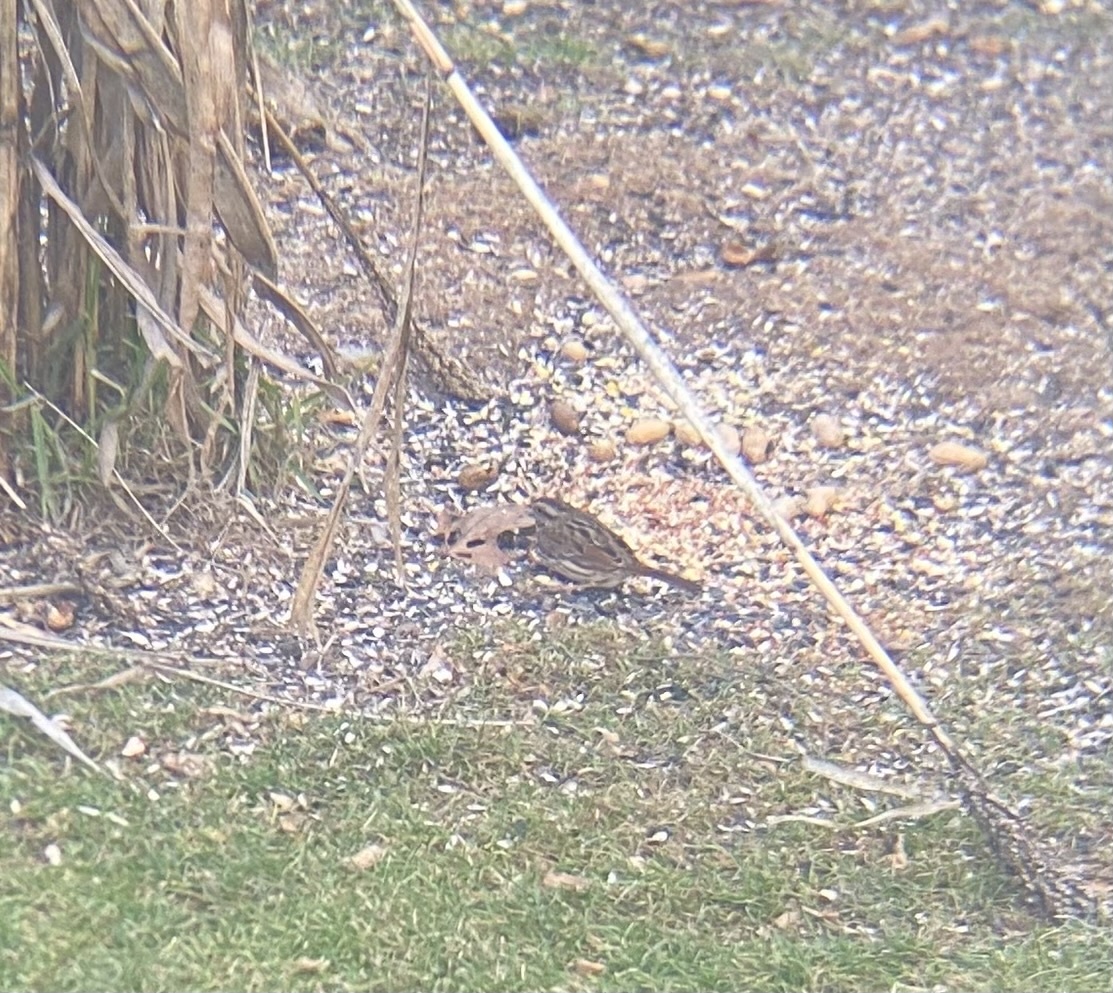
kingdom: Animalia
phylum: Chordata
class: Aves
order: Passeriformes
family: Passerellidae
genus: Melospiza
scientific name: Melospiza melodia
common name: Song sparrow
